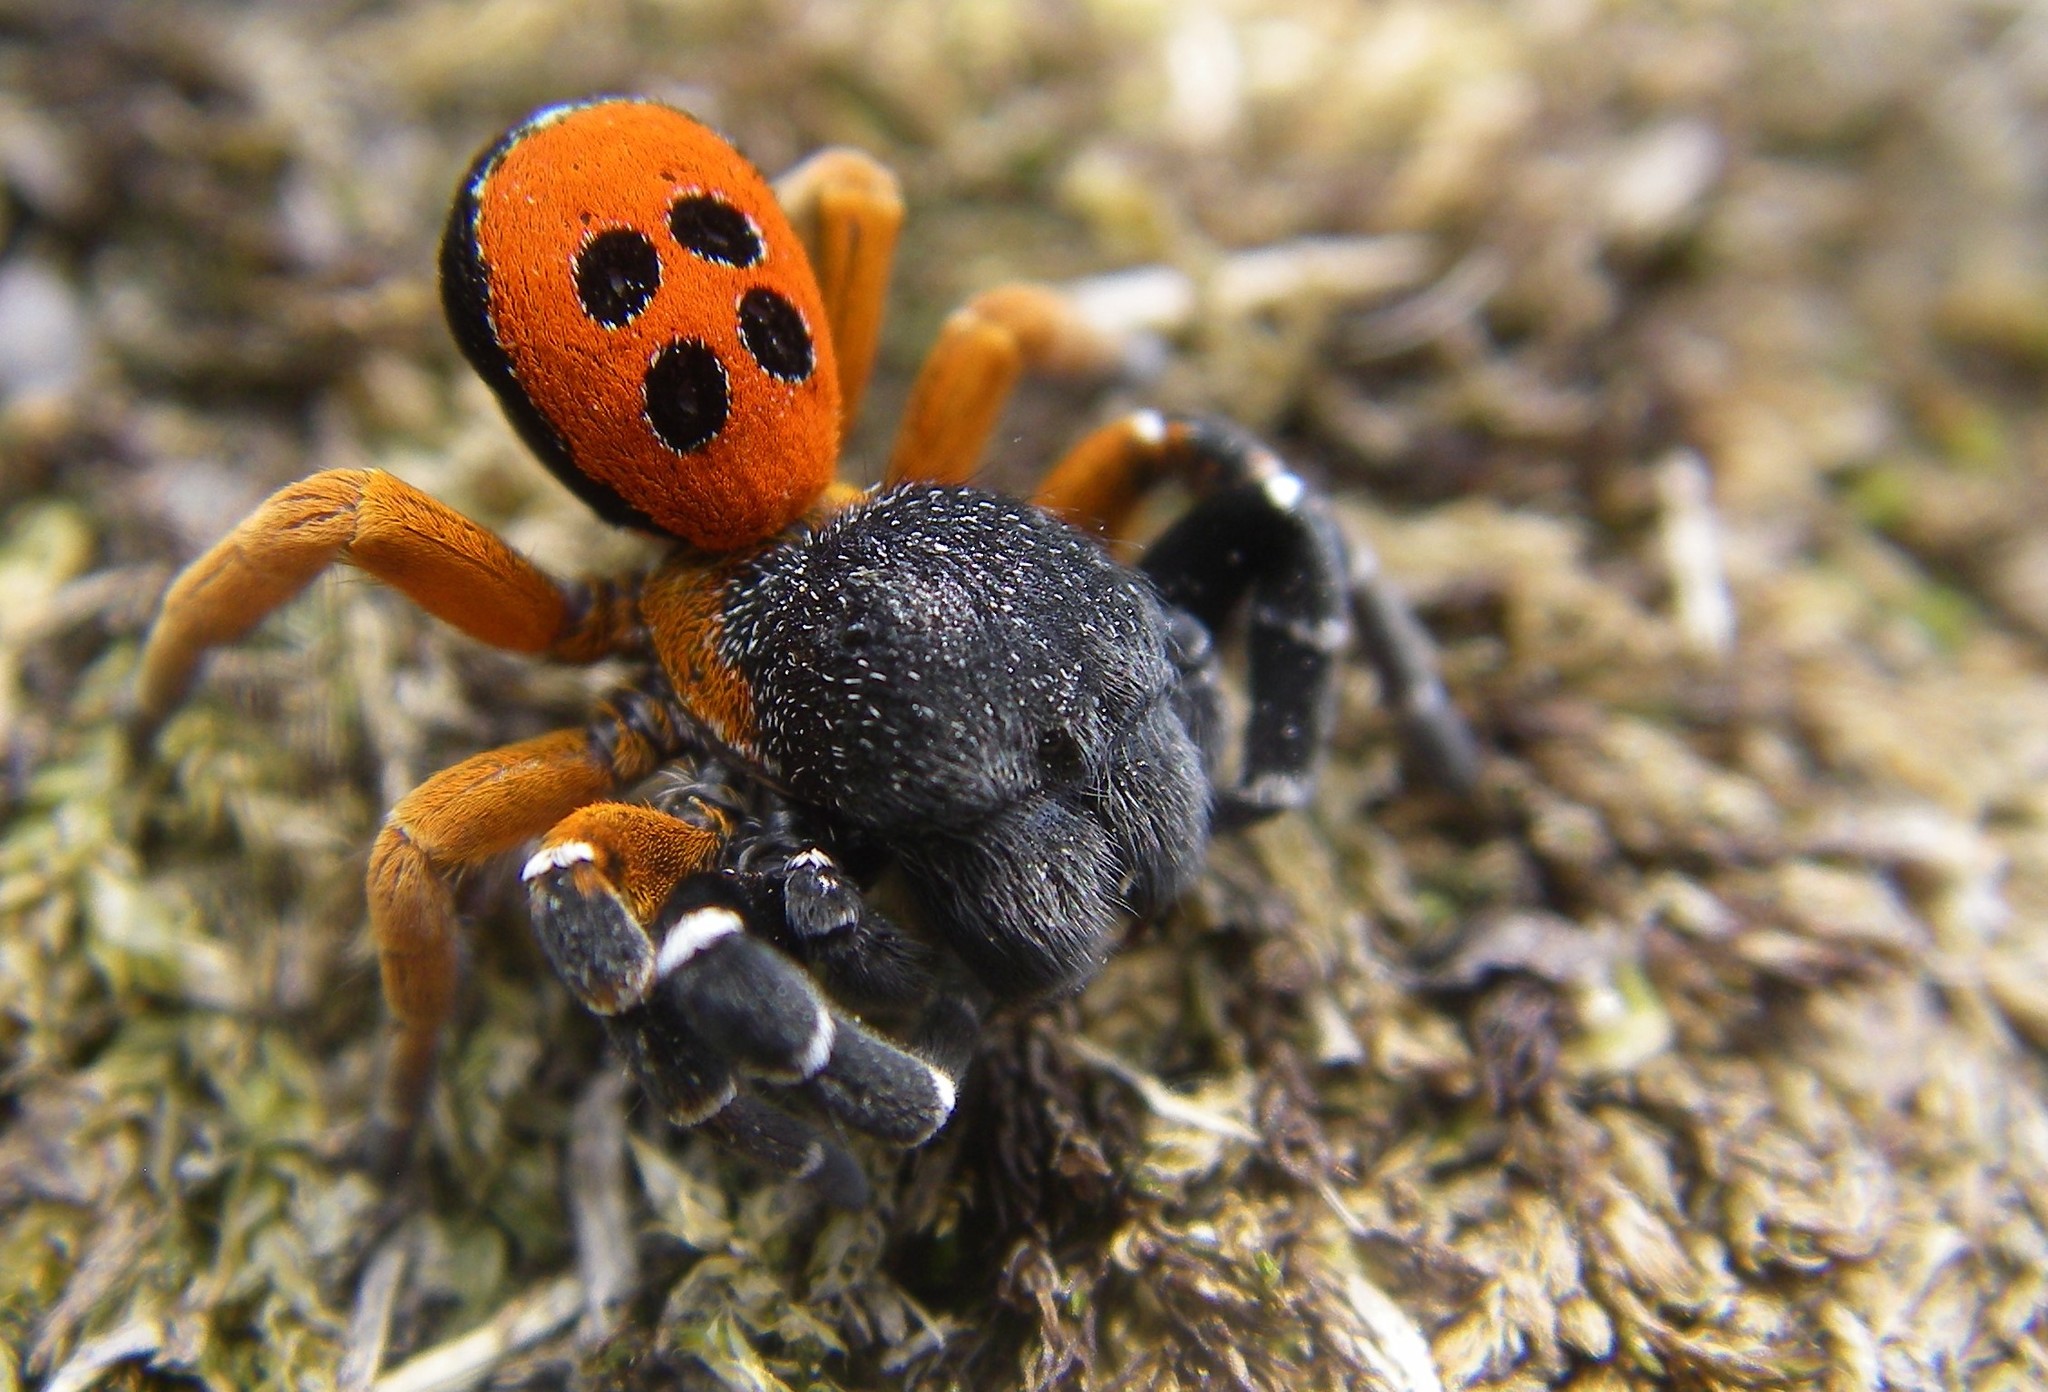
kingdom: Animalia
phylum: Arthropoda
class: Arachnida
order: Araneae
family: Eresidae
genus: Eresus
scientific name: Eresus kollari
